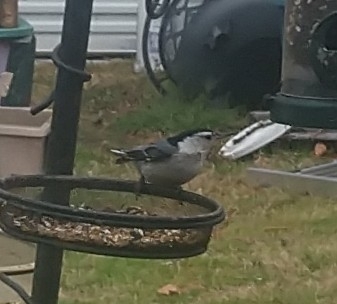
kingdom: Animalia
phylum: Chordata
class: Aves
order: Passeriformes
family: Sittidae
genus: Sitta
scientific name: Sitta carolinensis
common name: White-breasted nuthatch
